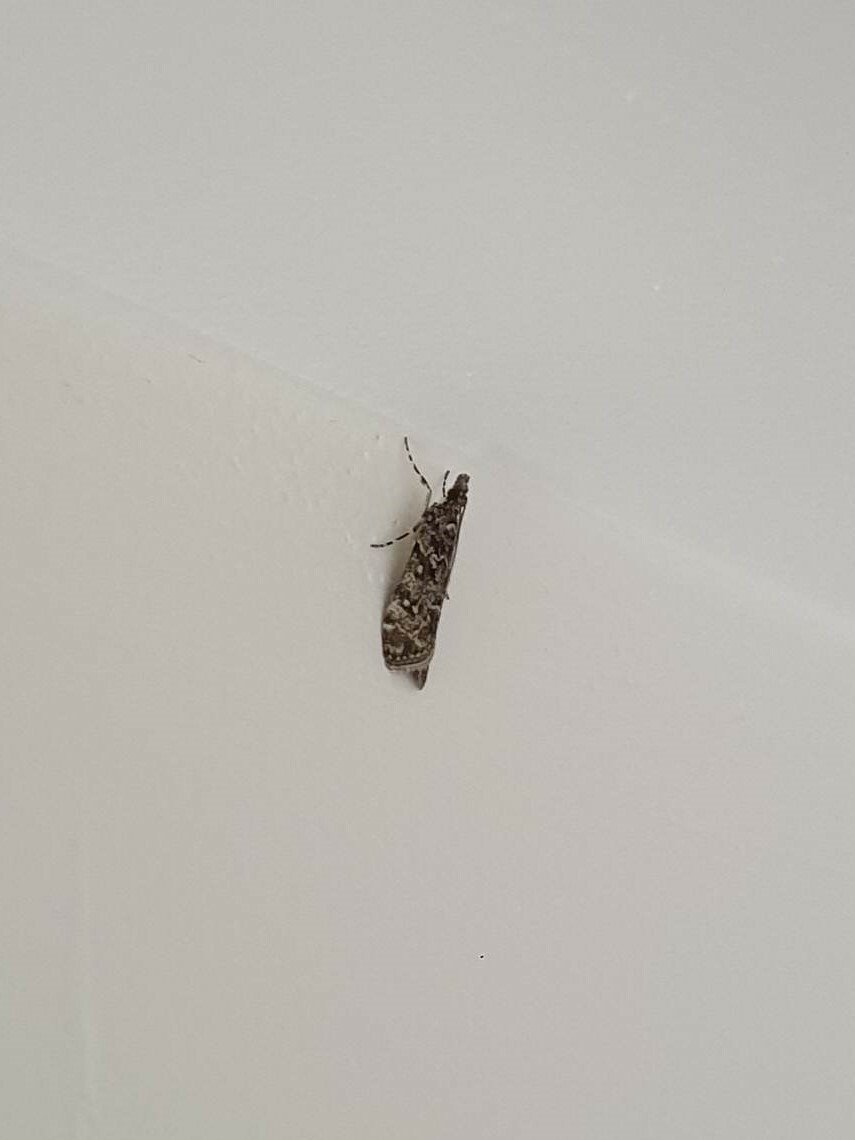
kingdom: Animalia
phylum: Arthropoda
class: Insecta
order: Lepidoptera
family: Crambidae
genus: Eudonia
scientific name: Eudonia philerga
